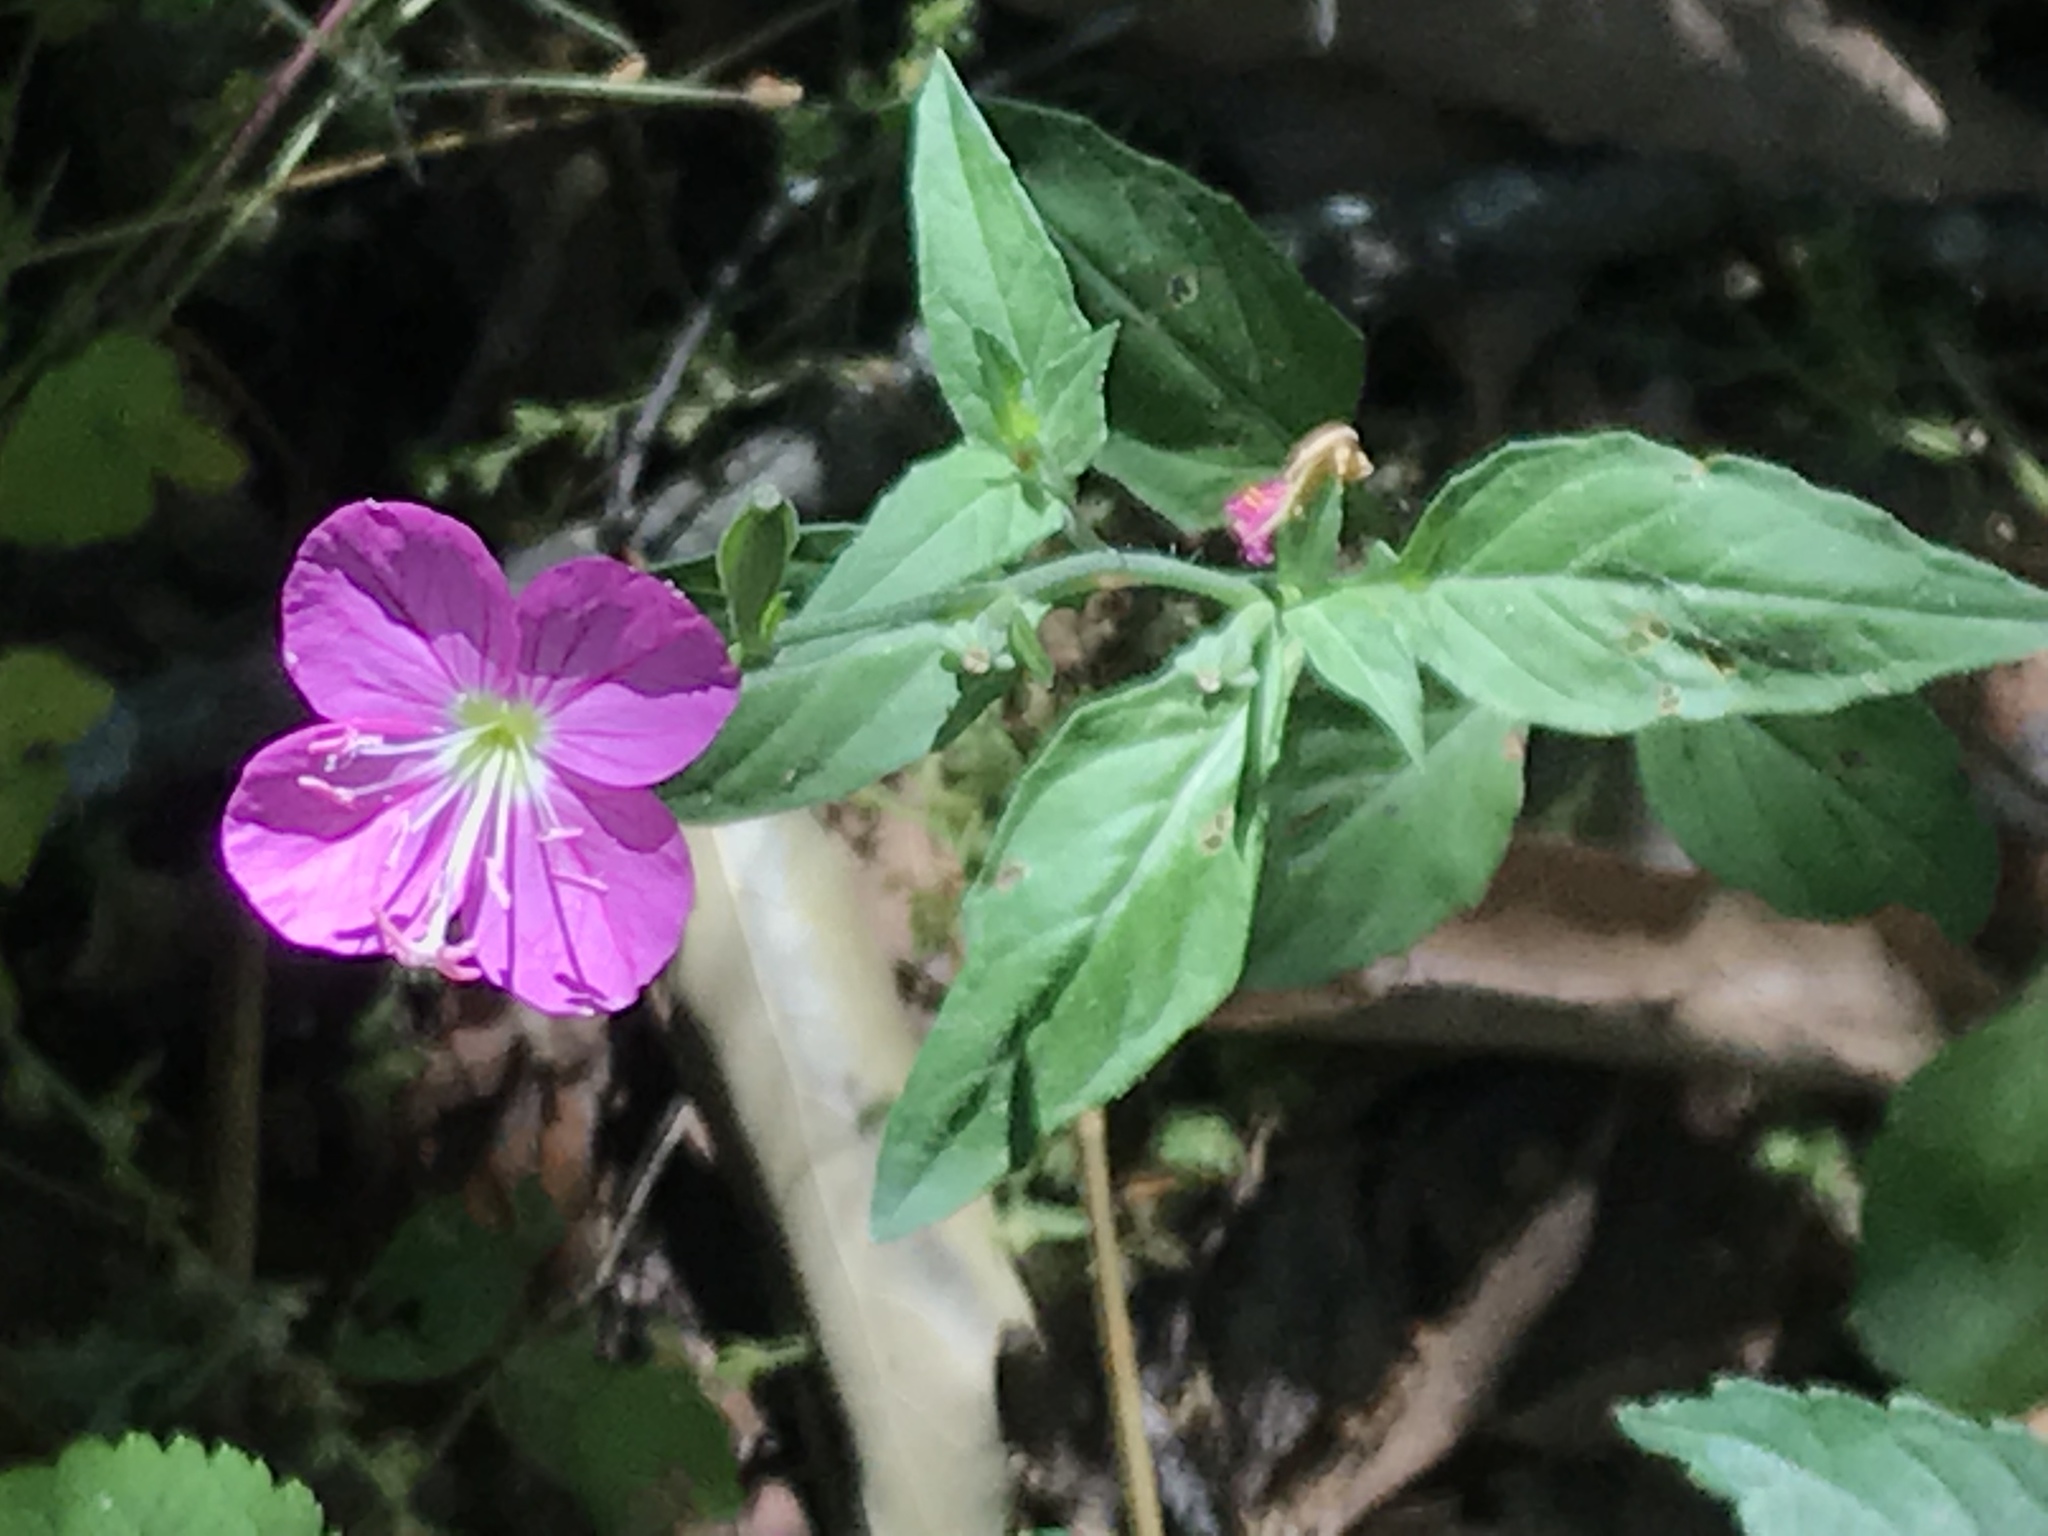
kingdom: Plantae
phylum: Tracheophyta
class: Magnoliopsida
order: Myrtales
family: Onagraceae
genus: Oenothera
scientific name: Oenothera rosea
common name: Rosy evening-primrose
